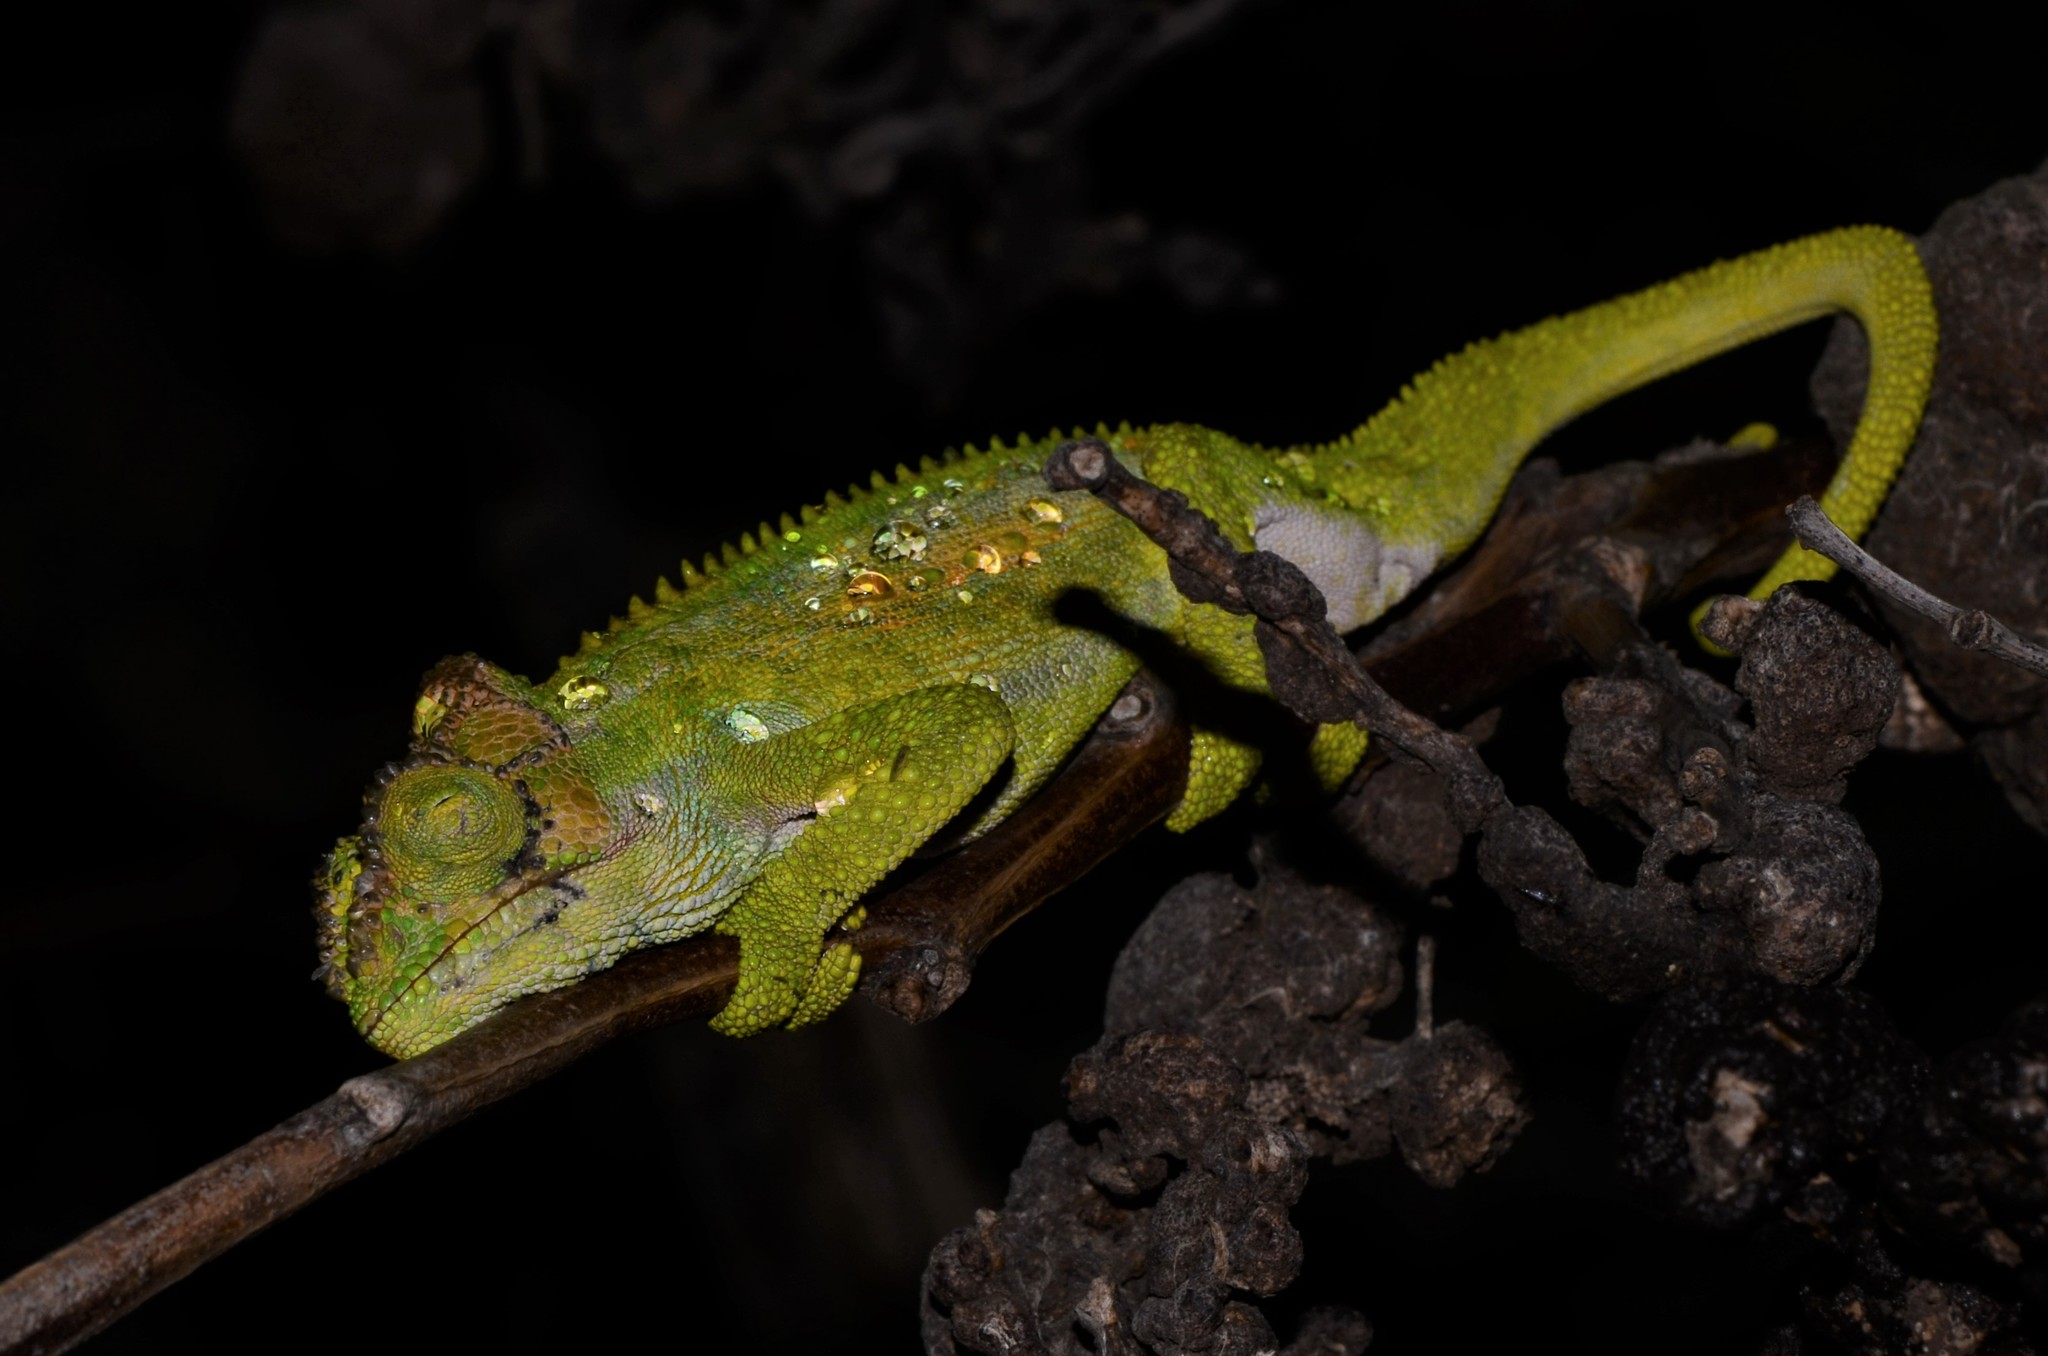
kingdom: Animalia
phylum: Chordata
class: Squamata
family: Chamaeleonidae
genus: Bradypodion
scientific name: Bradypodion pumilum
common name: Cape dwarf chameleon
